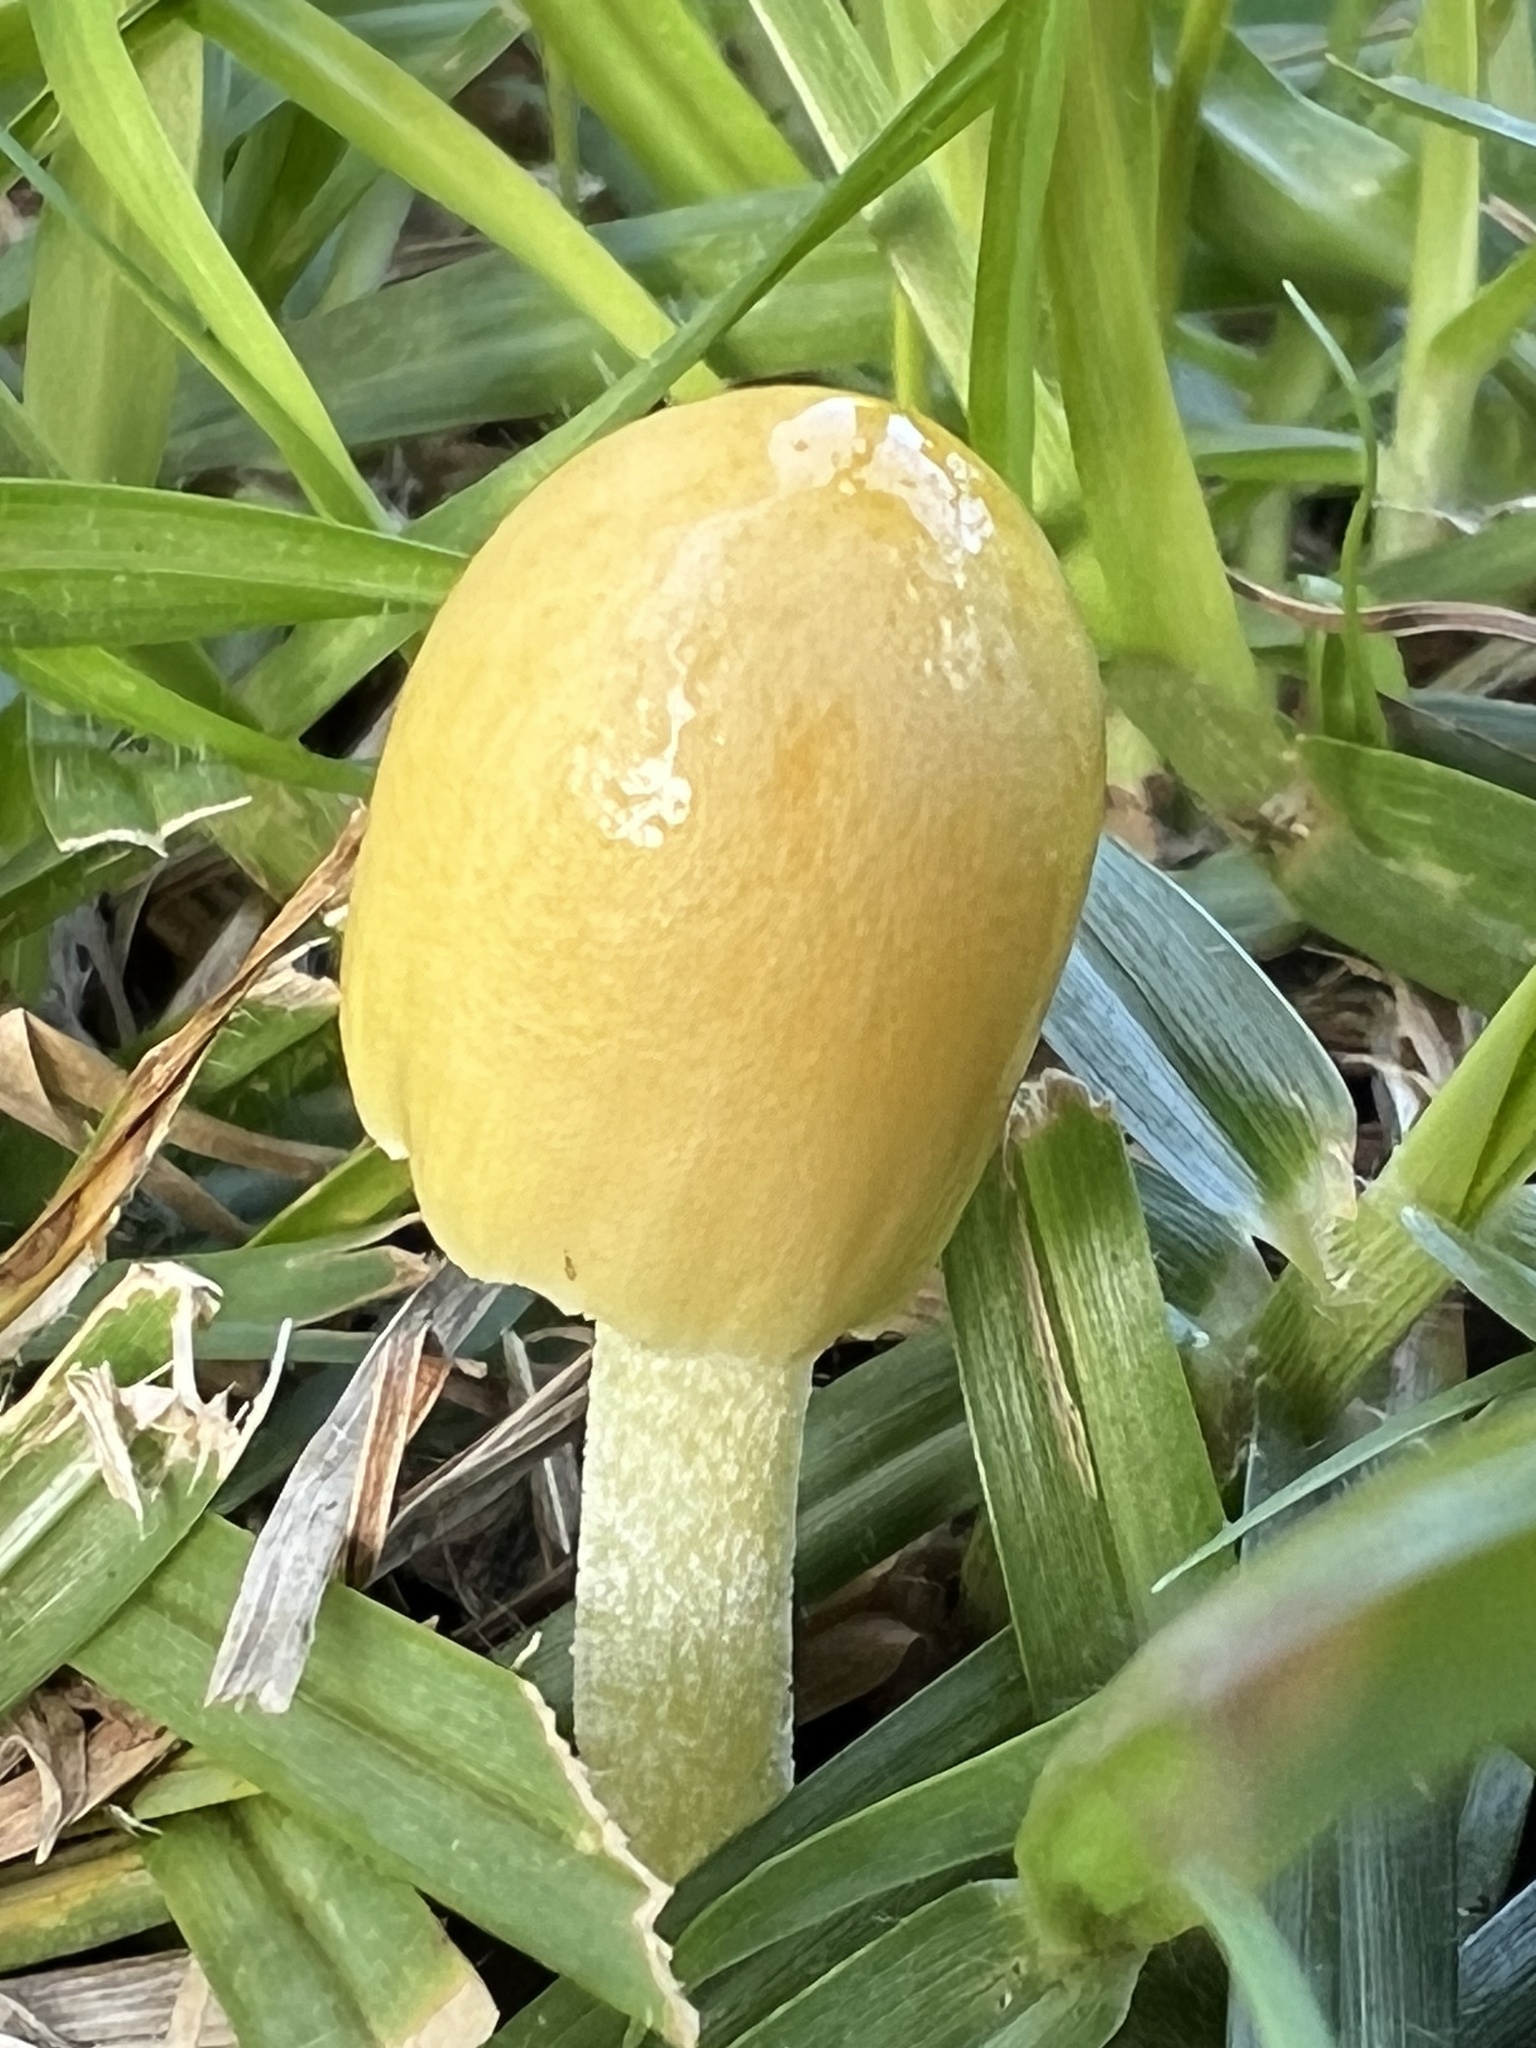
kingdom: Fungi
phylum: Basidiomycota
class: Agaricomycetes
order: Agaricales
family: Bolbitiaceae
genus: Bolbitius
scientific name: Bolbitius titubans
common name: Yellow fieldcap
